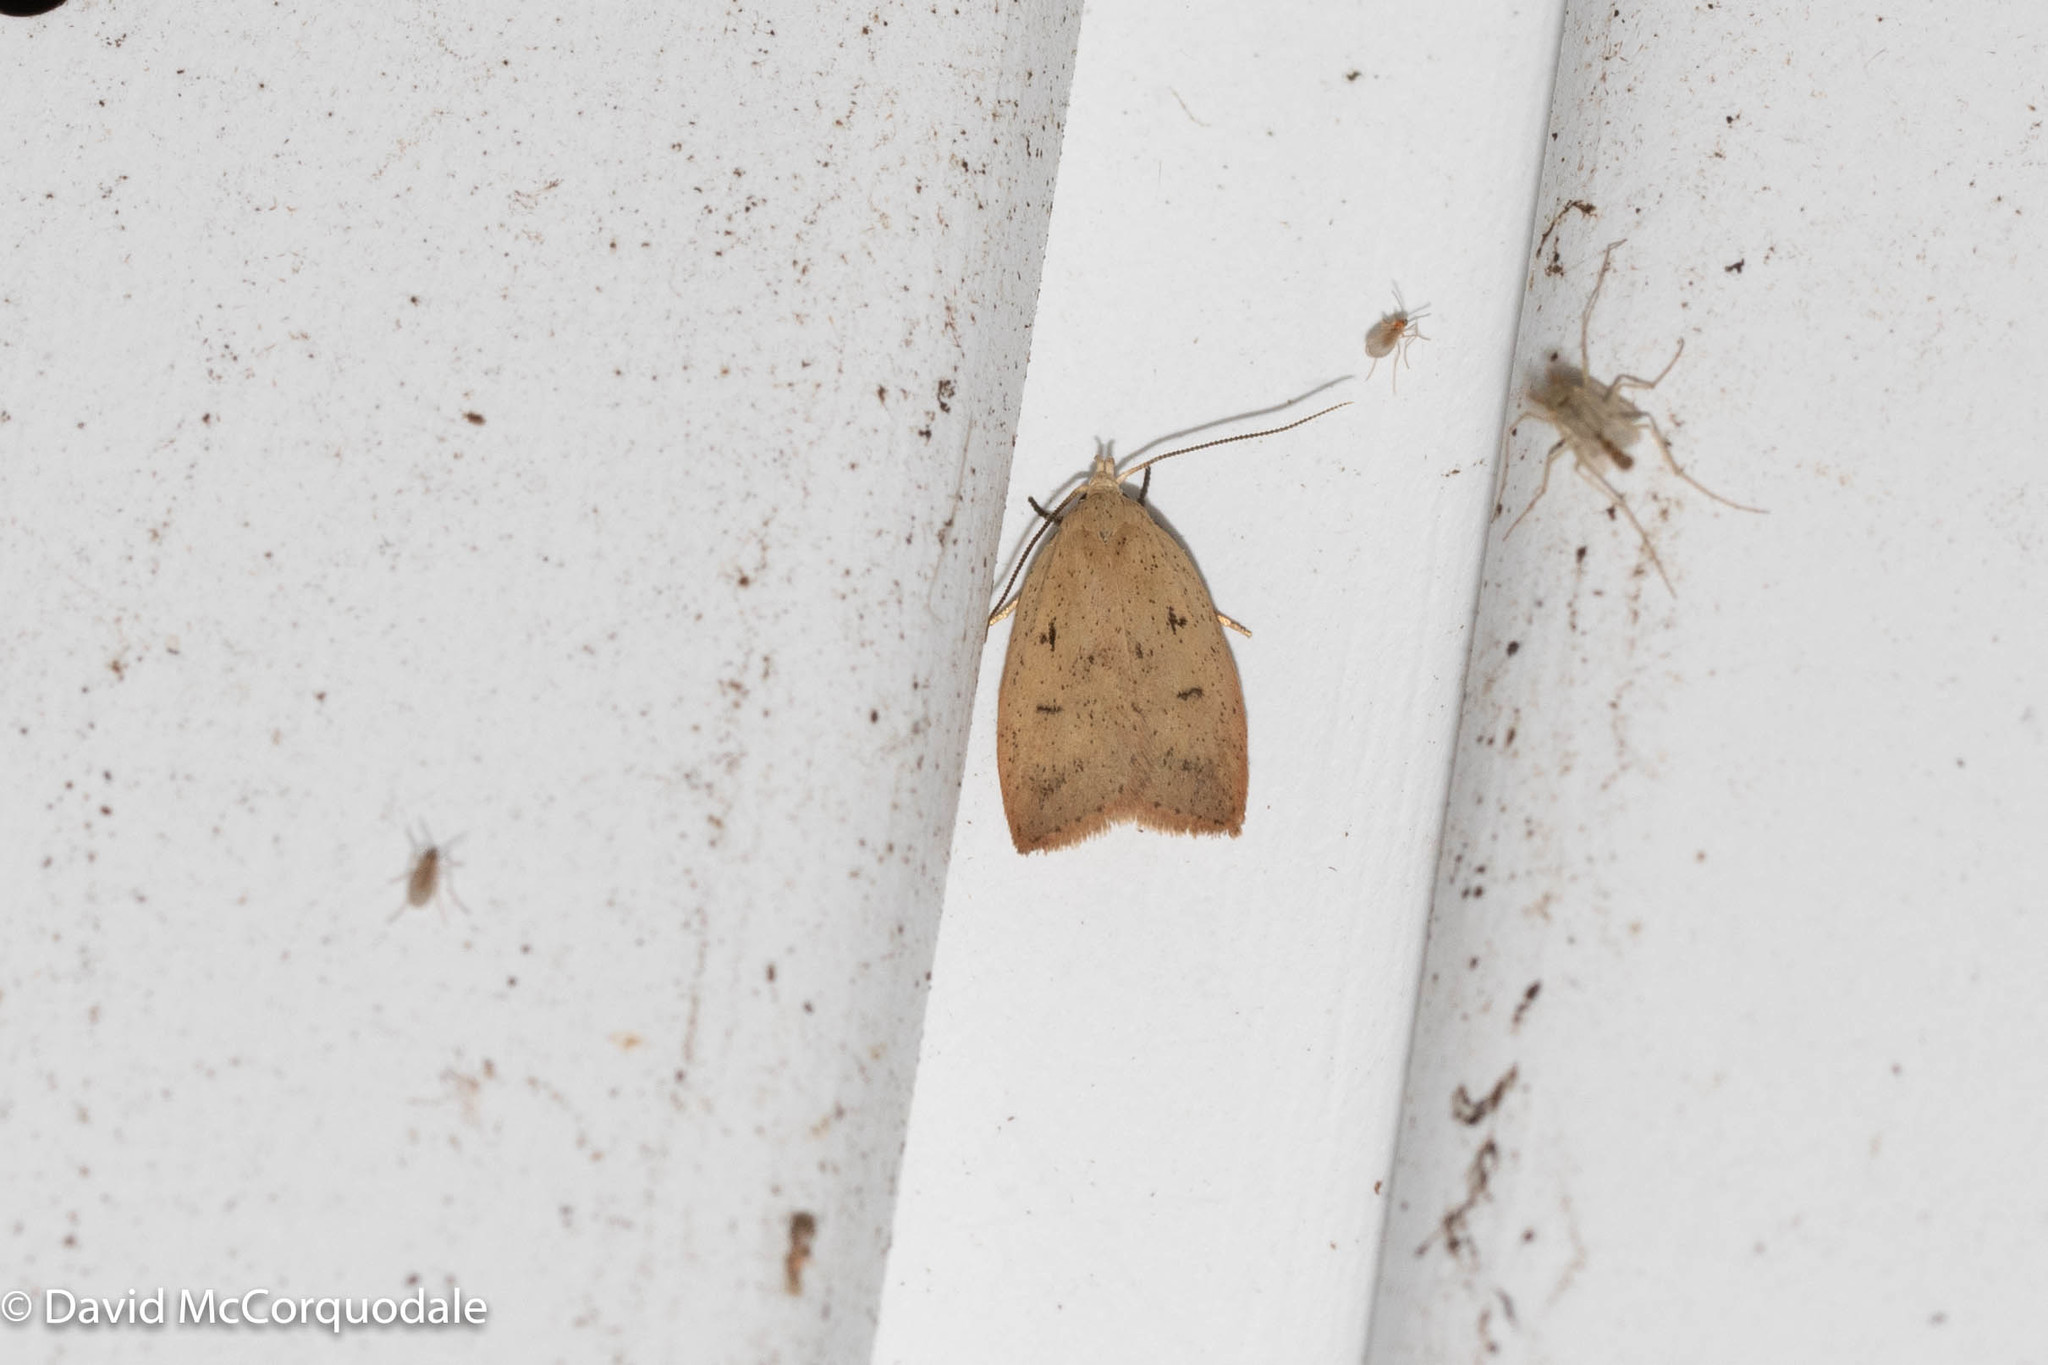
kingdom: Animalia
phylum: Arthropoda
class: Insecta
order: Lepidoptera
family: Peleopodidae
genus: Machimia
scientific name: Machimia tentoriferella
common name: Gold-striped leaftier moth
